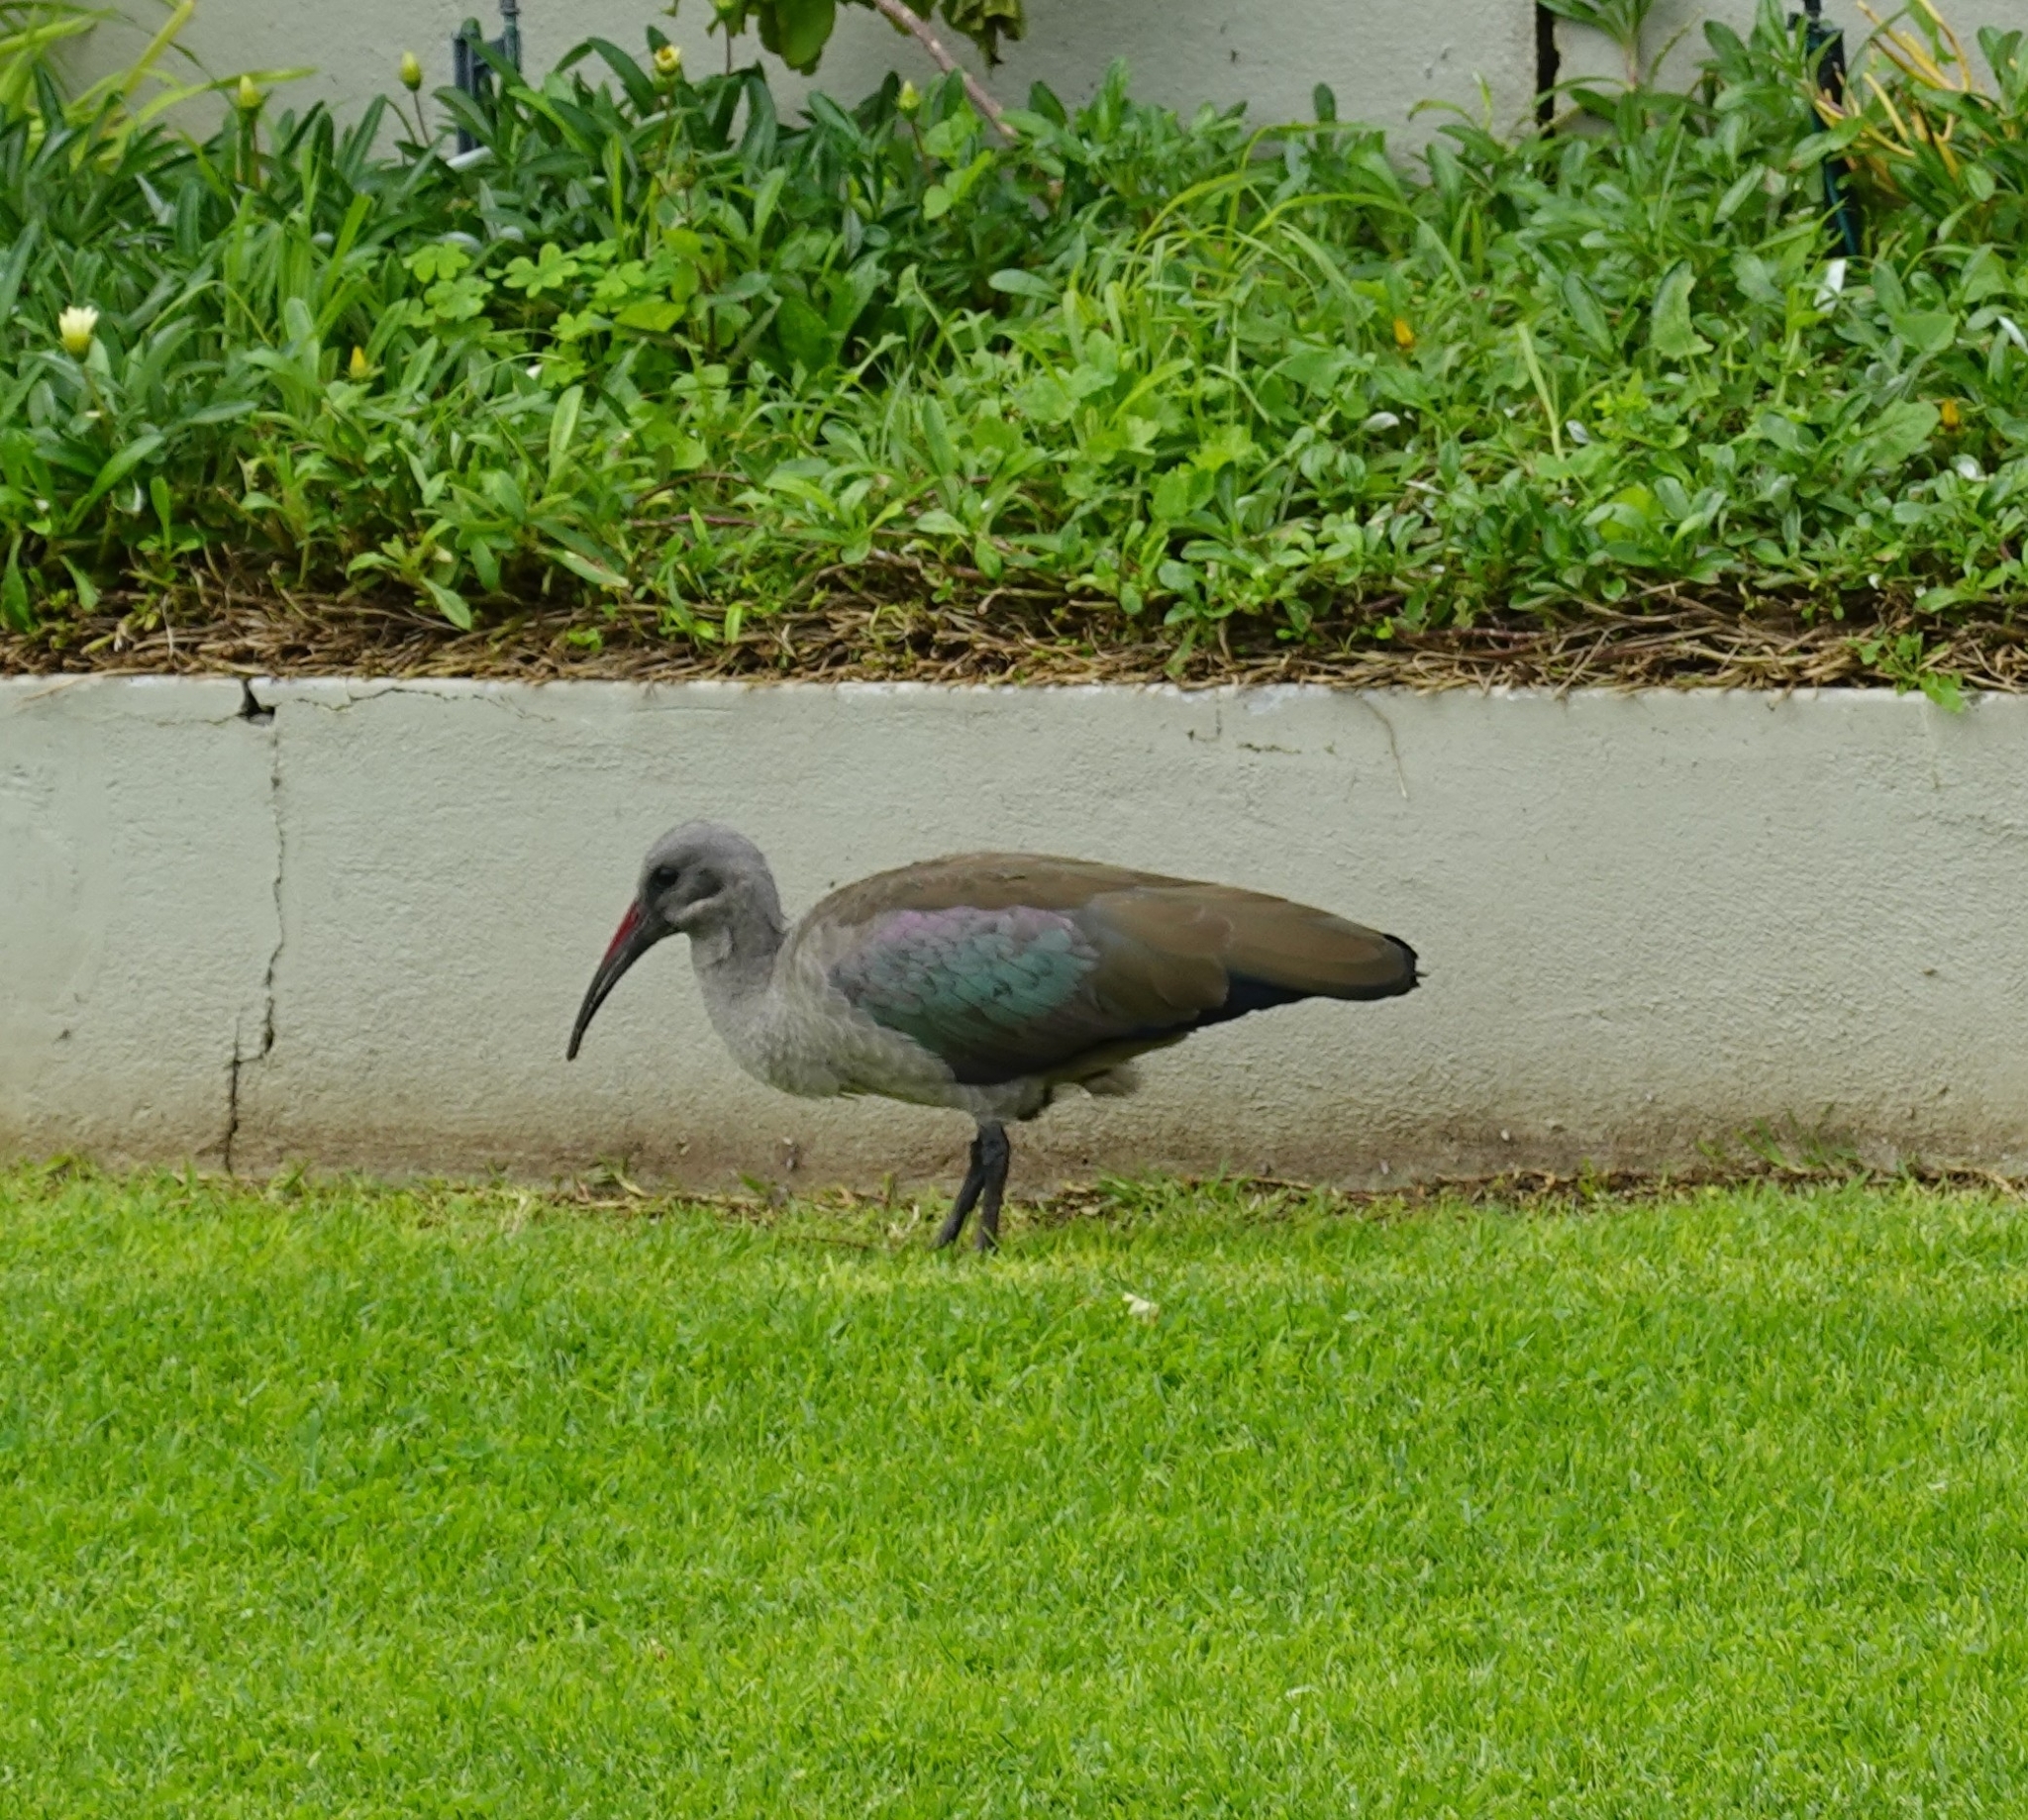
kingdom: Animalia
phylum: Chordata
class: Aves
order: Pelecaniformes
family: Threskiornithidae
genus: Bostrychia
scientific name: Bostrychia hagedash
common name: Hadada ibis
